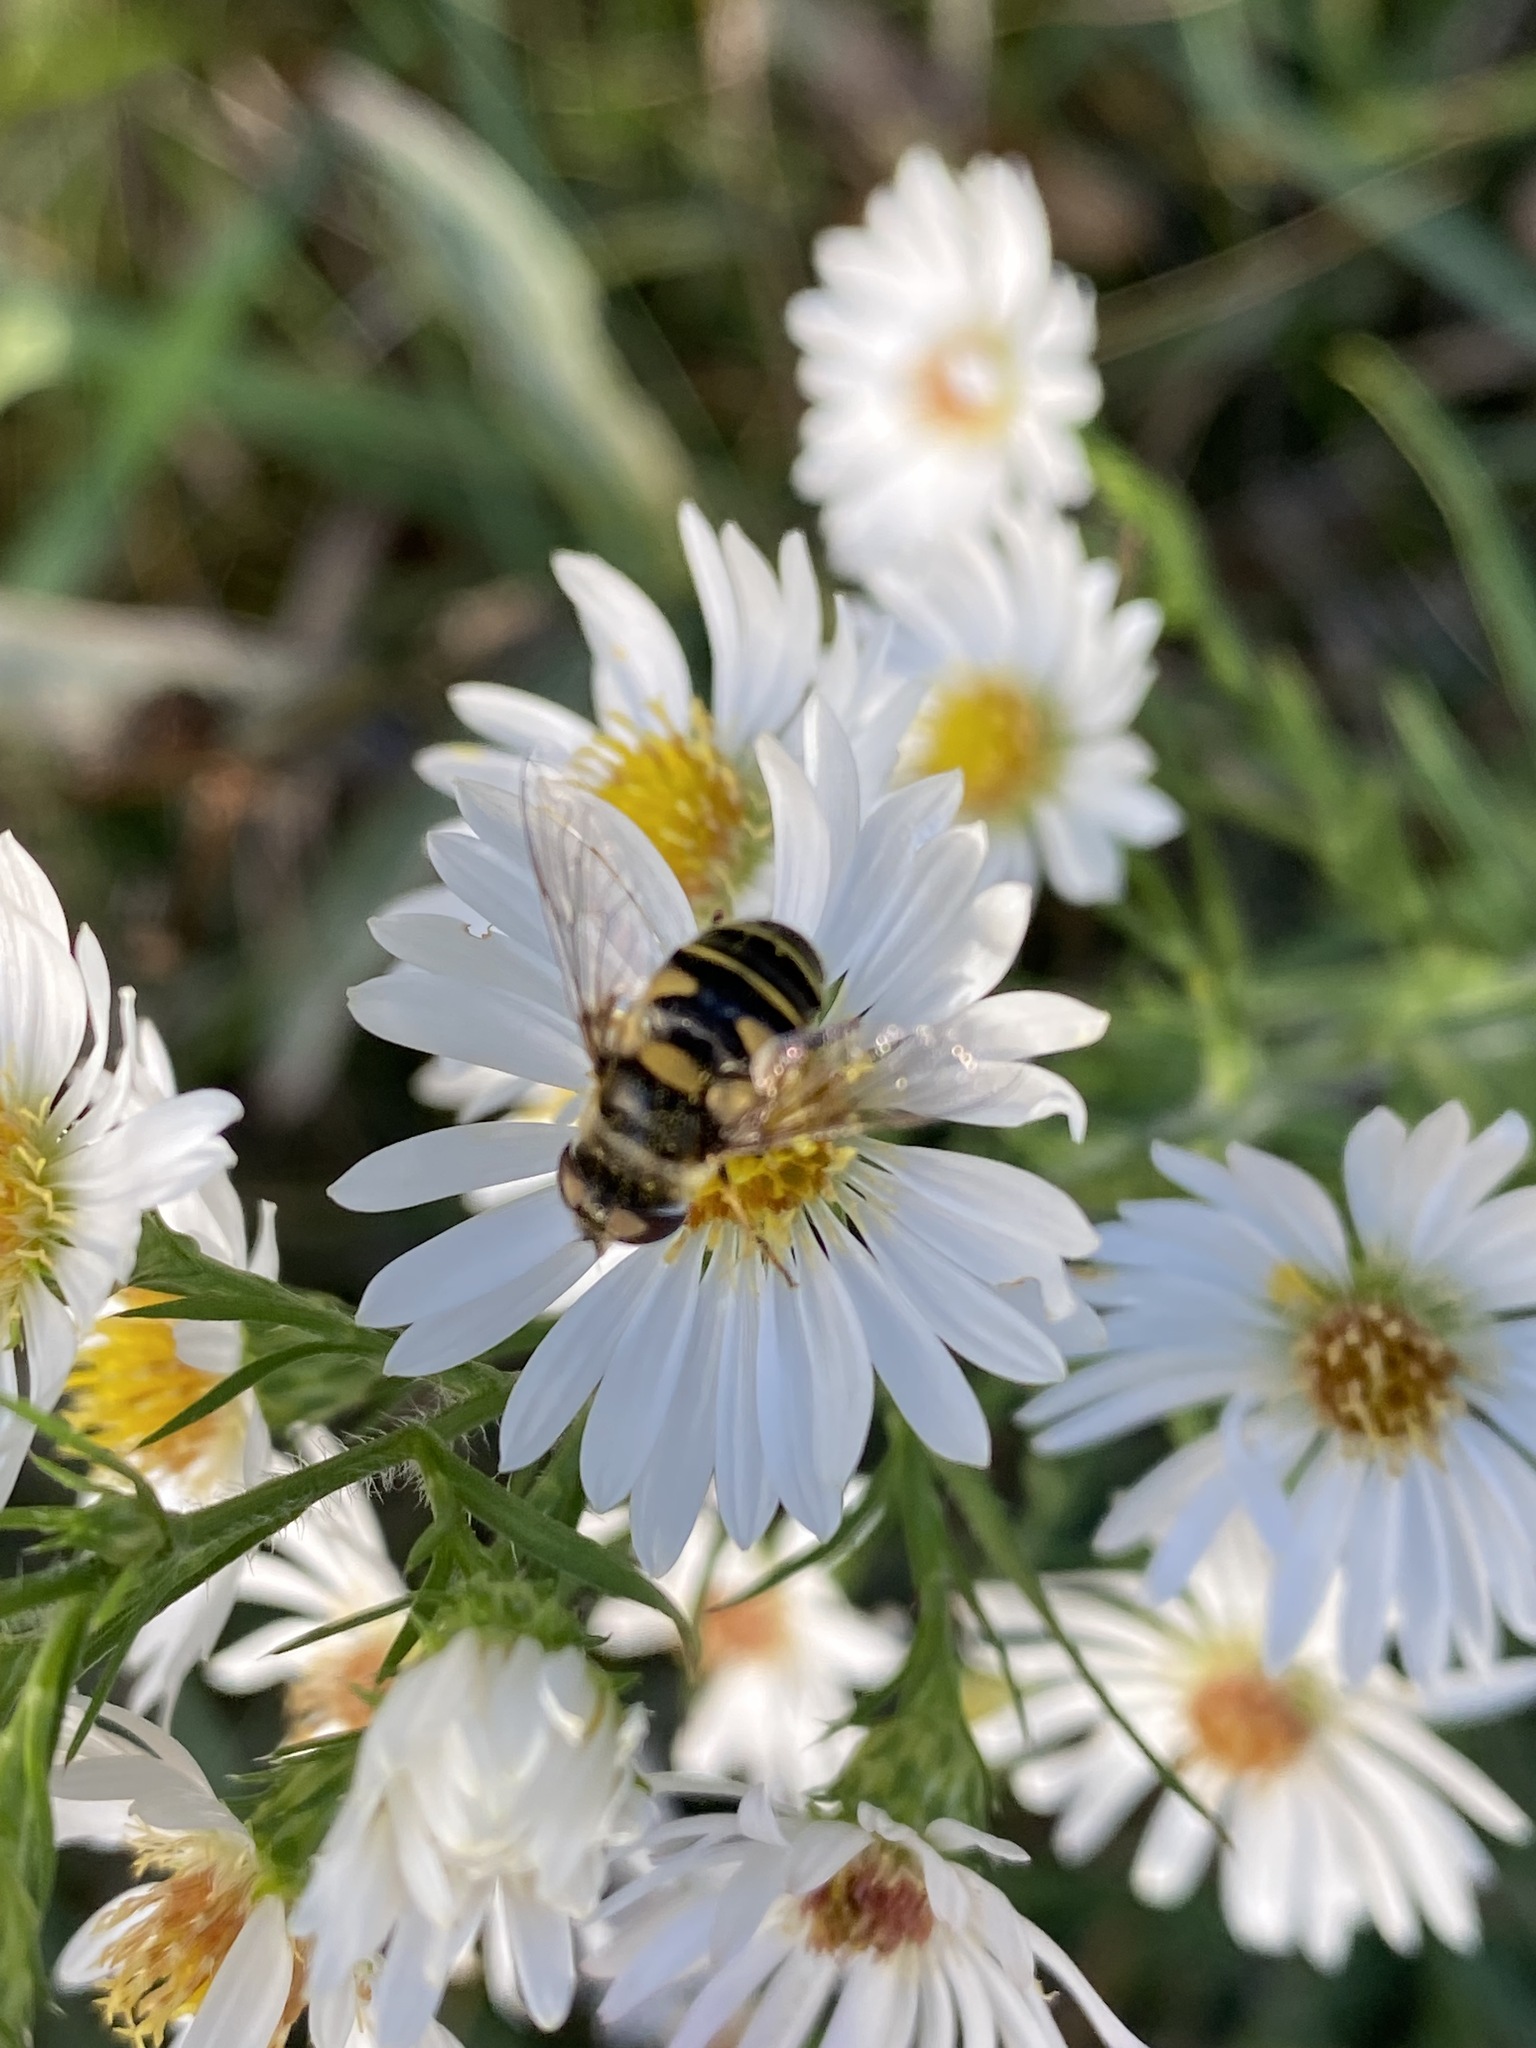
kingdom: Animalia
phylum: Arthropoda
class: Insecta
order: Diptera
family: Syrphidae
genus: Eristalis
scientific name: Eristalis transversa
